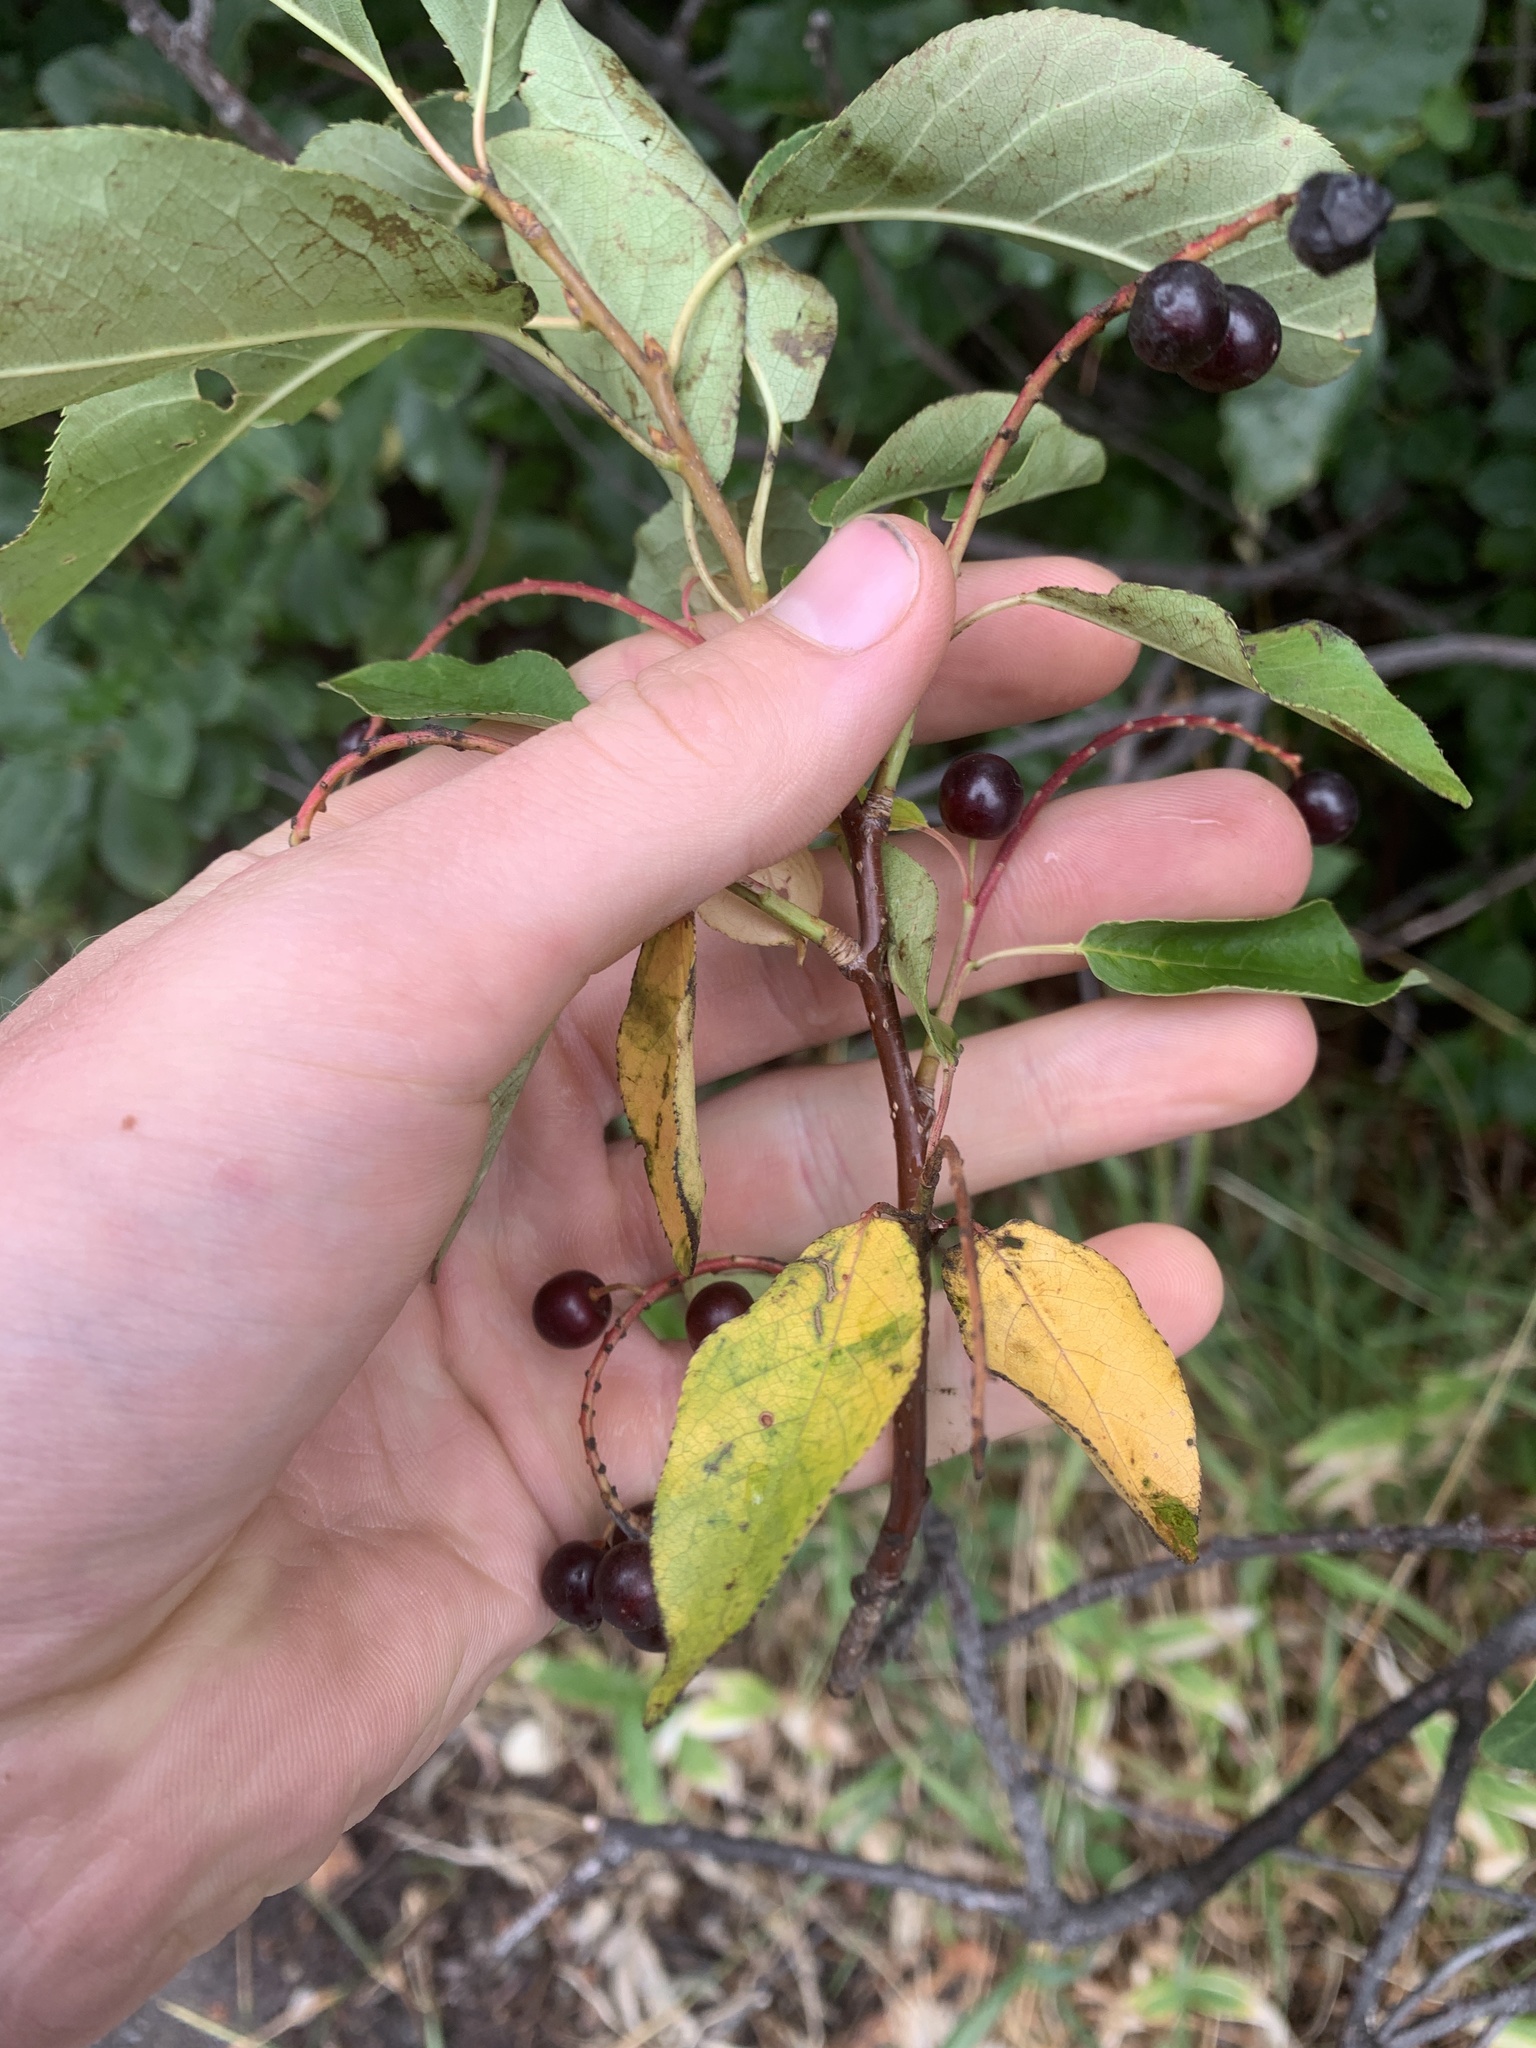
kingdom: Plantae
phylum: Tracheophyta
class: Magnoliopsida
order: Rosales
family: Rosaceae
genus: Prunus
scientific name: Prunus virginiana
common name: Chokecherry
